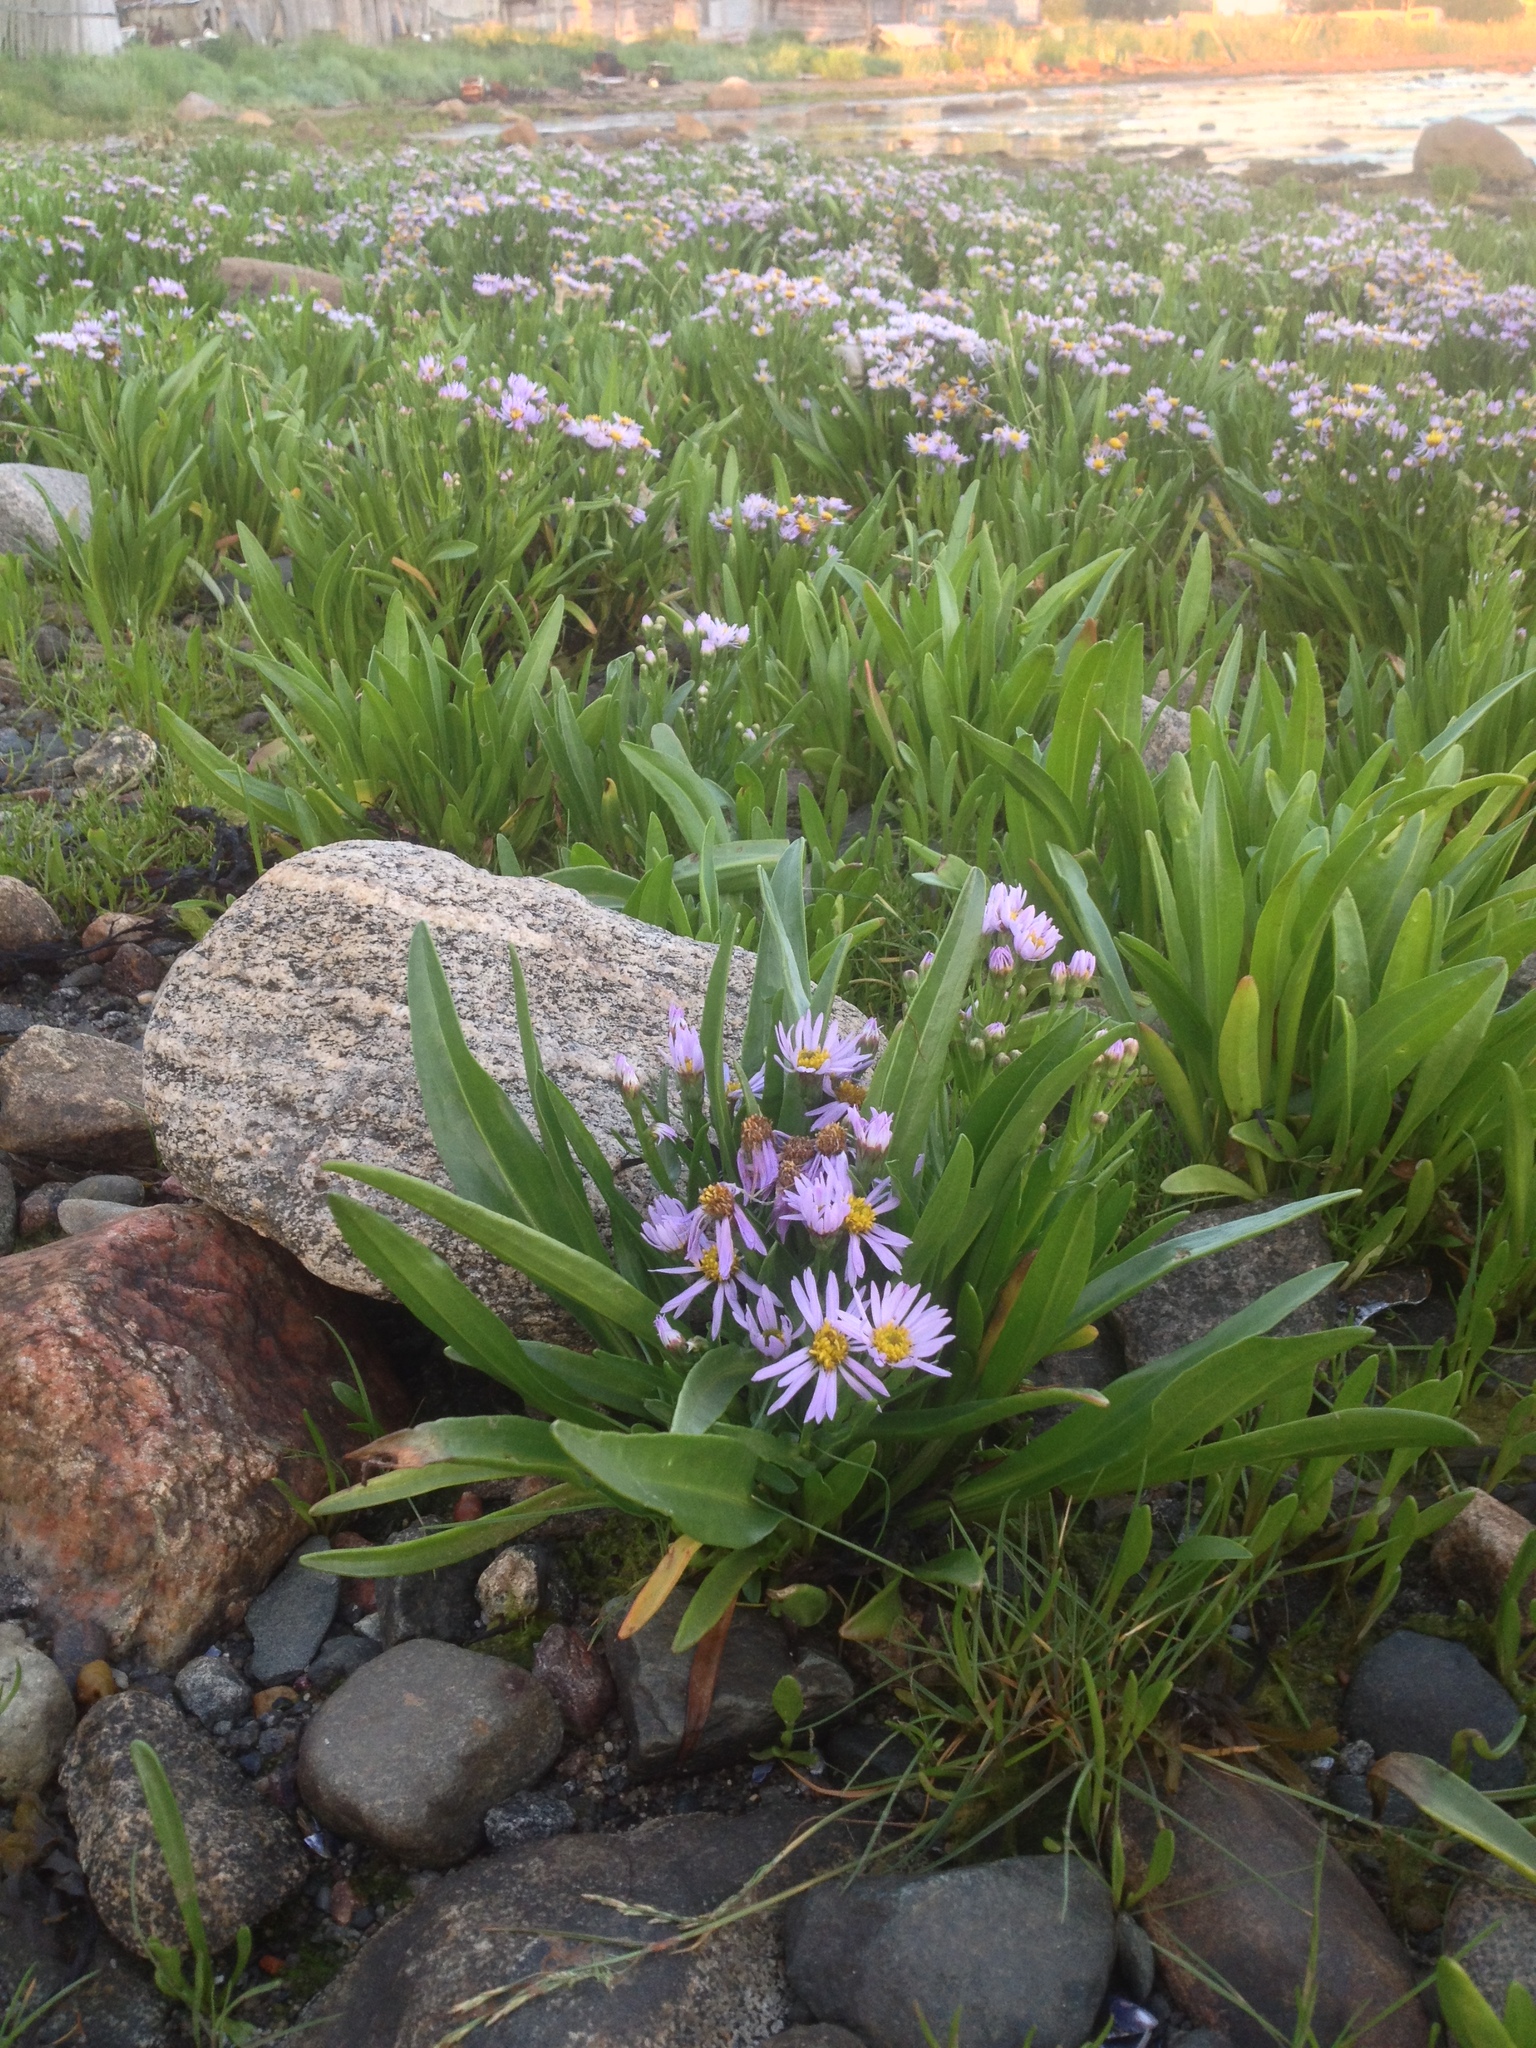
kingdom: Plantae
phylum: Tracheophyta
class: Magnoliopsida
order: Asterales
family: Asteraceae
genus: Tripolium
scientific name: Tripolium pannonicum
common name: Sea aster
